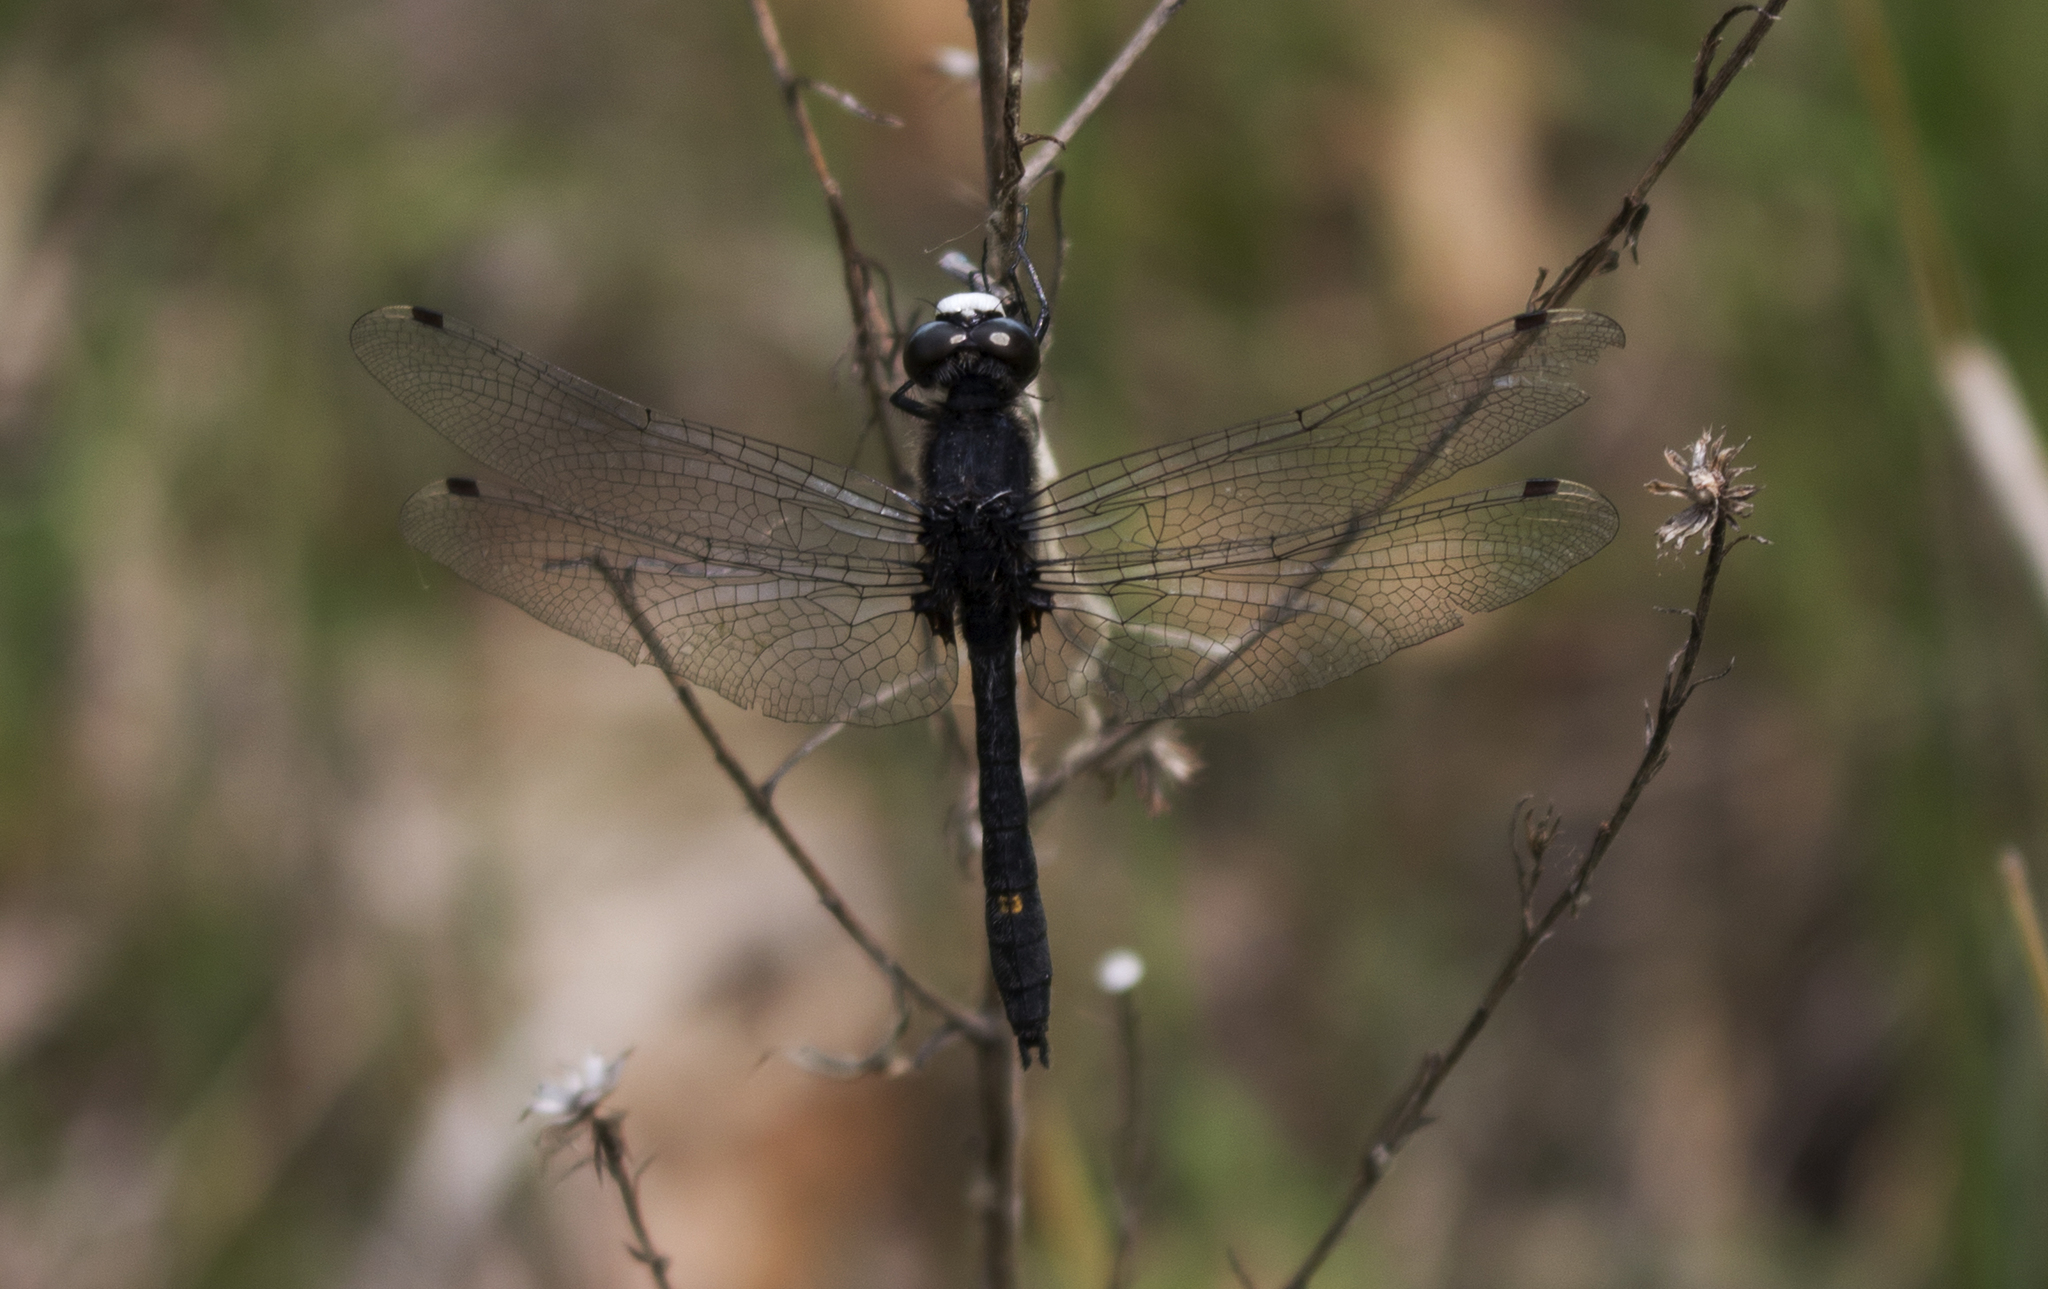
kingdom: Animalia
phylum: Arthropoda
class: Insecta
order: Odonata
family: Libellulidae
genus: Leucorrhinia
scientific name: Leucorrhinia intacta
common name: Dot-tailed whiteface
